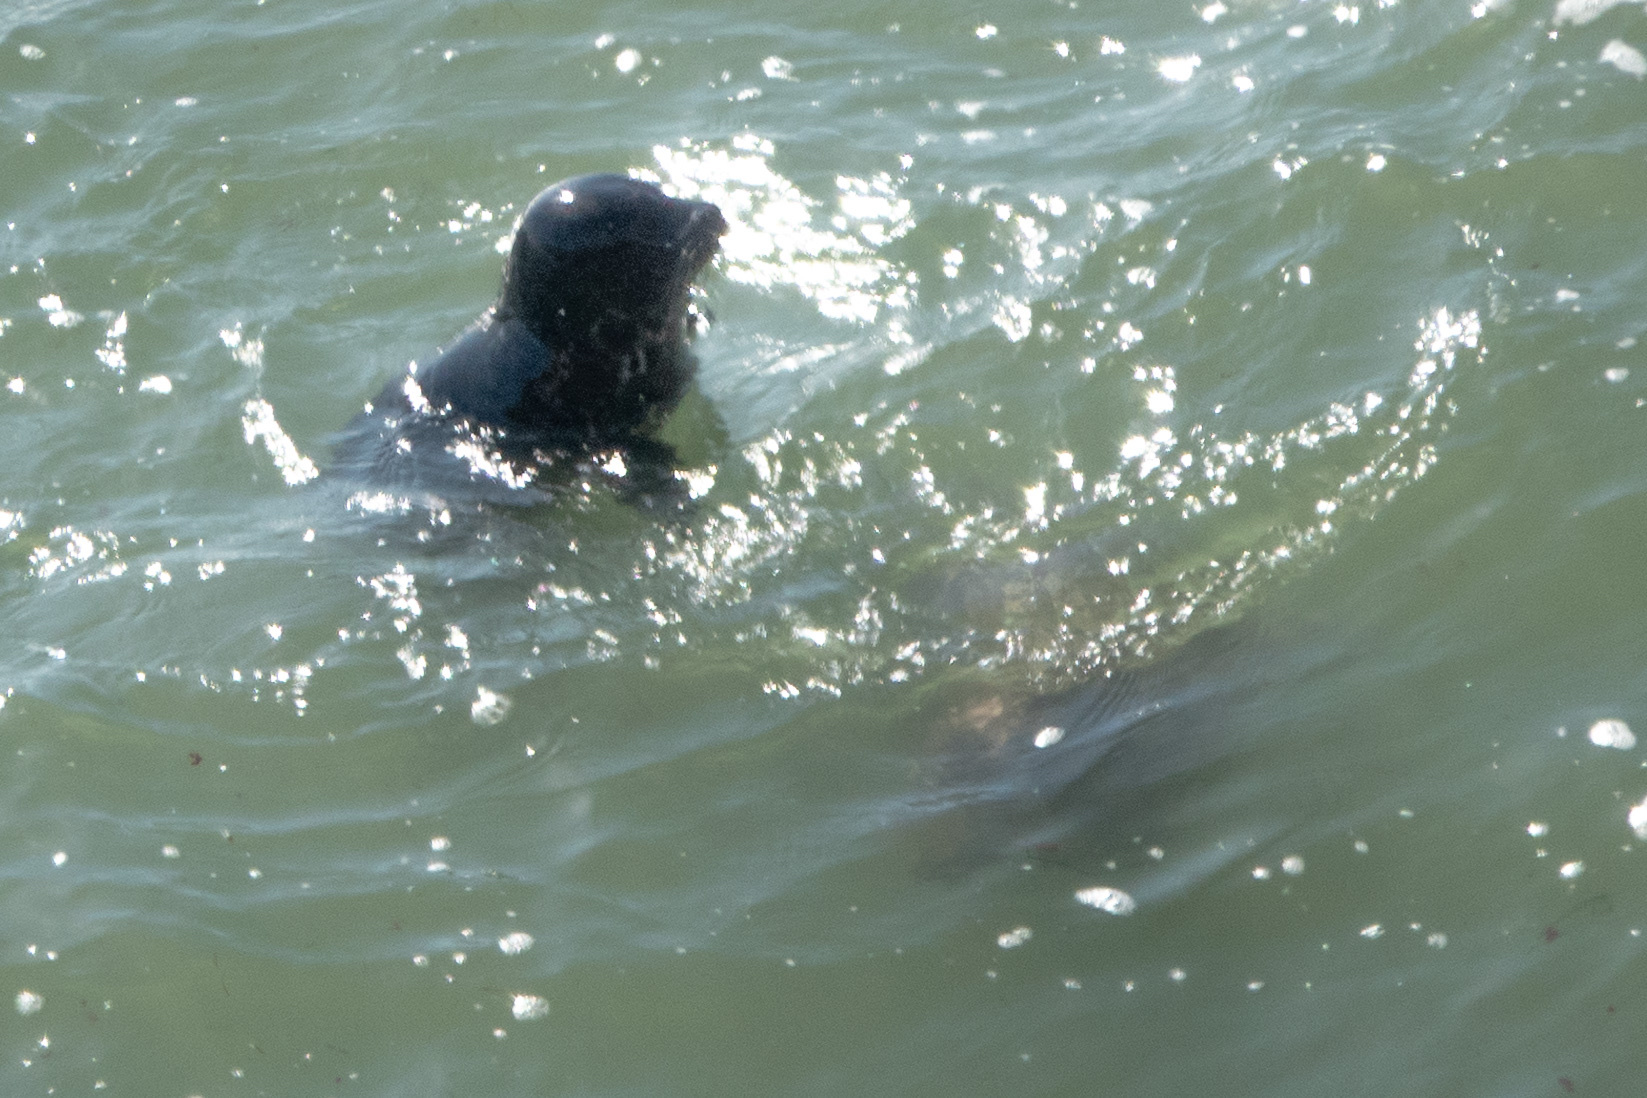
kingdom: Animalia
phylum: Chordata
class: Mammalia
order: Carnivora
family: Phocidae
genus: Phoca
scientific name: Phoca vitulina
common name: Harbor seal
